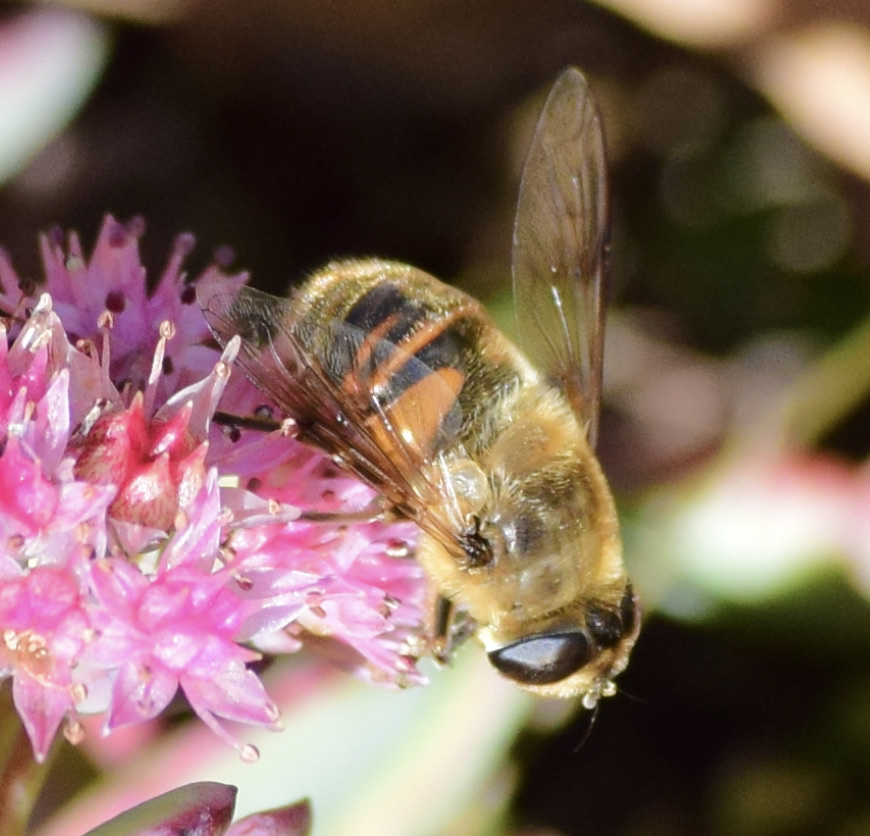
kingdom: Animalia
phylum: Arthropoda
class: Insecta
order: Diptera
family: Syrphidae
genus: Eristalis
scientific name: Eristalis tenax
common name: Drone fly
